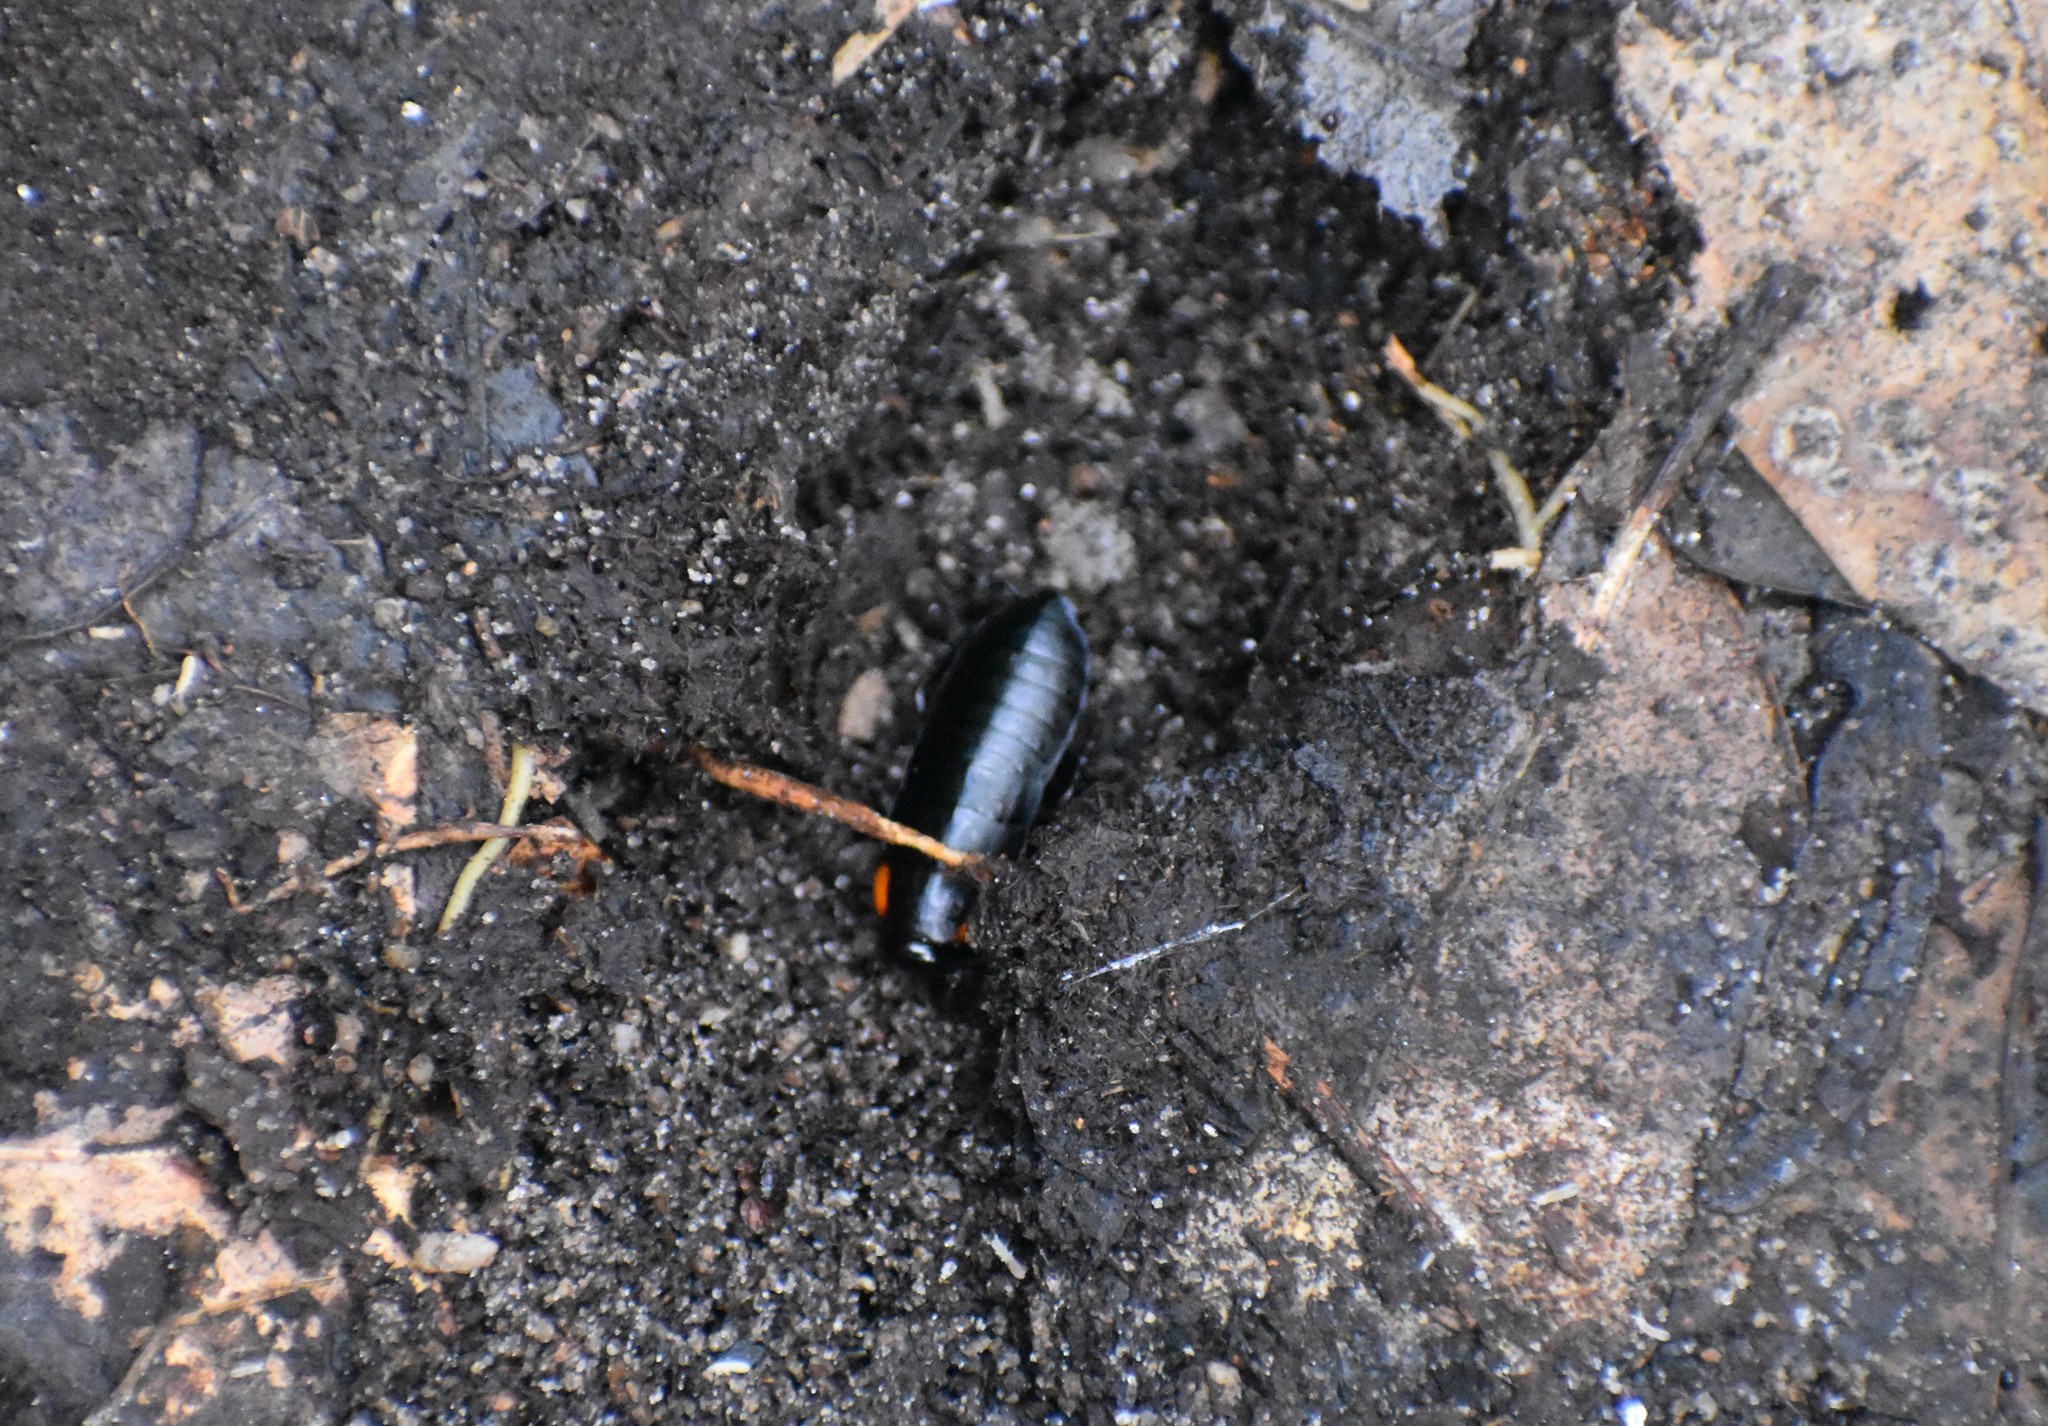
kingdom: Animalia
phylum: Arthropoda
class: Insecta
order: Blattodea
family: Blattidae
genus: Hebardina
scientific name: Hebardina rhodesiana
